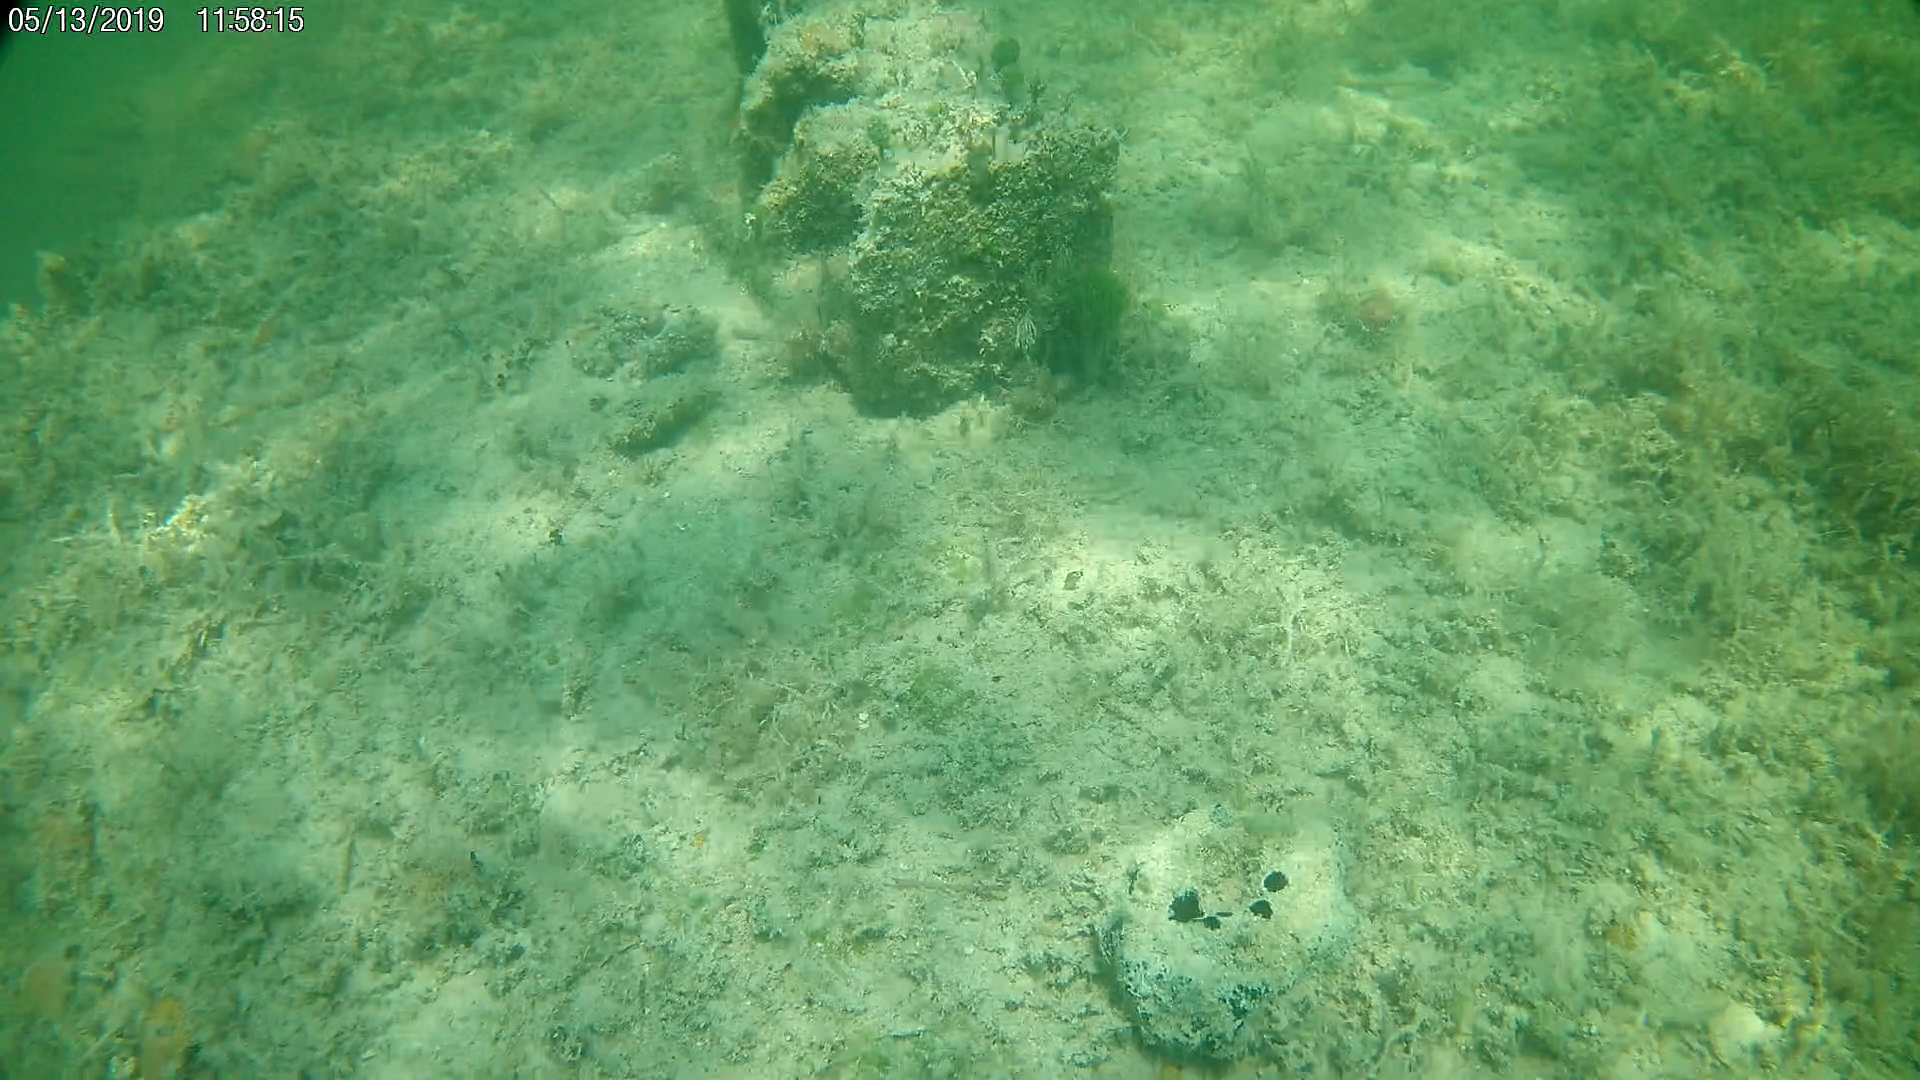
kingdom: Animalia
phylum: Porifera
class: Demospongiae
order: Clionaida
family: Clionaidae
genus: Spheciospongia
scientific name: Spheciospongia vesparium
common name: Manjack
